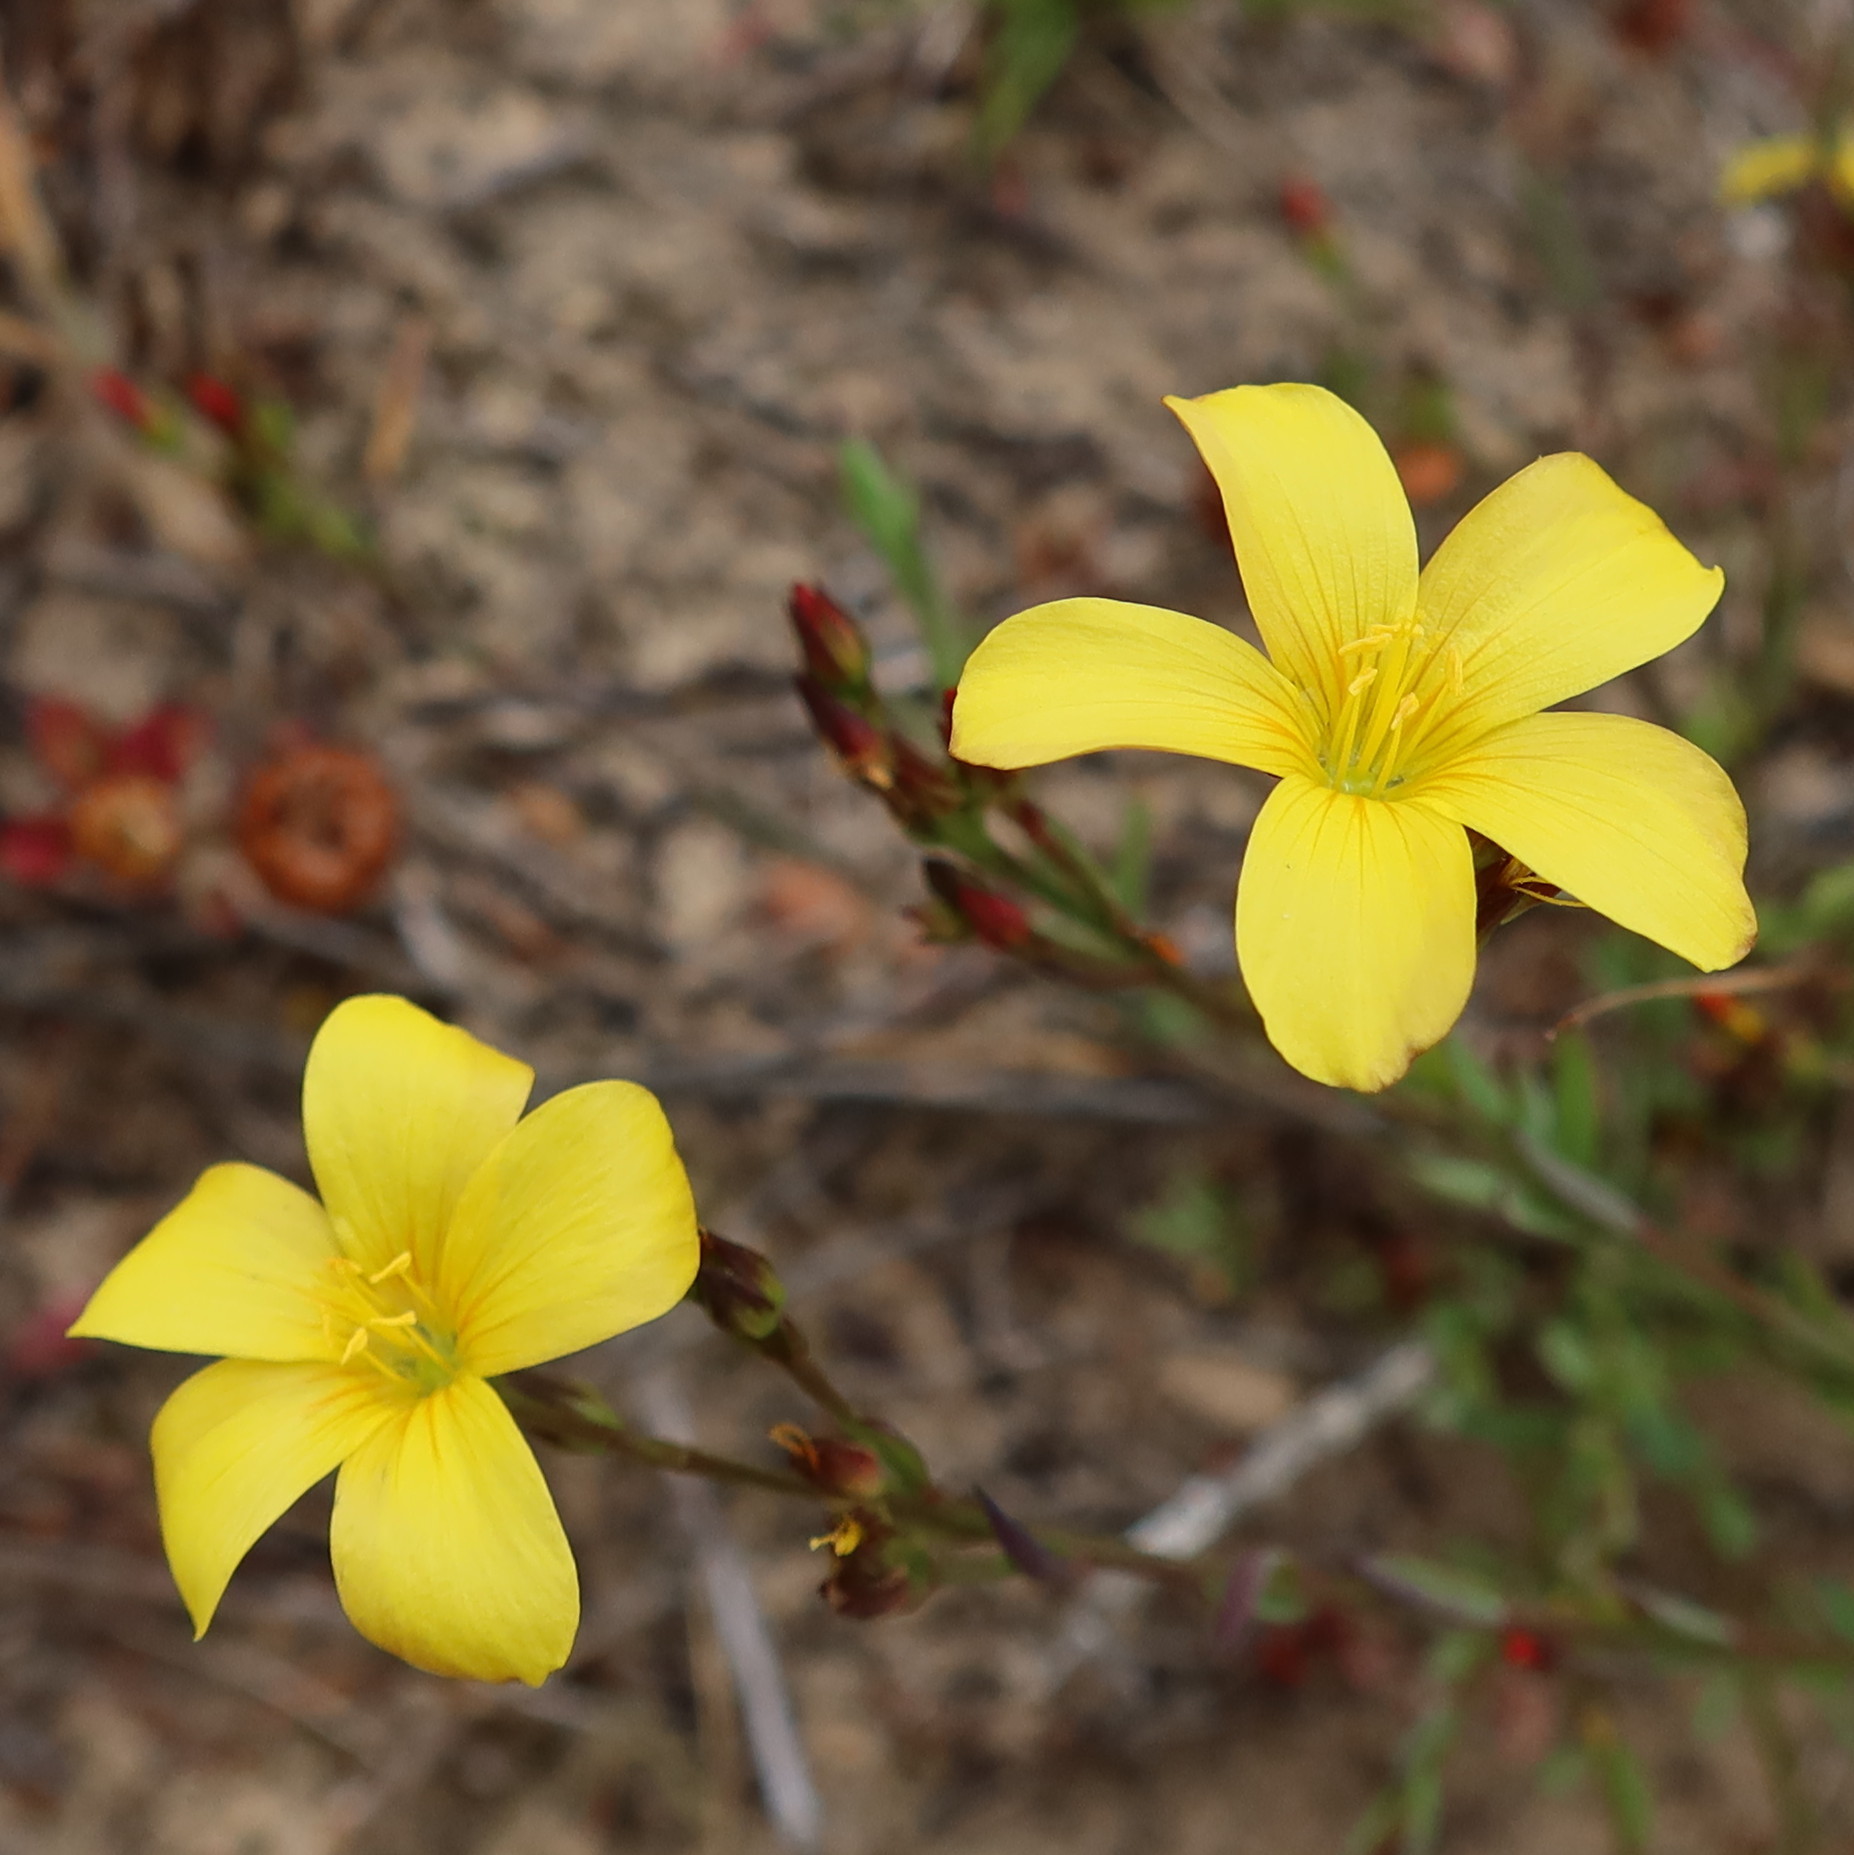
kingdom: Plantae
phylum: Tracheophyta
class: Magnoliopsida
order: Malpighiales
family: Linaceae
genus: Linum
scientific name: Linum africanum
